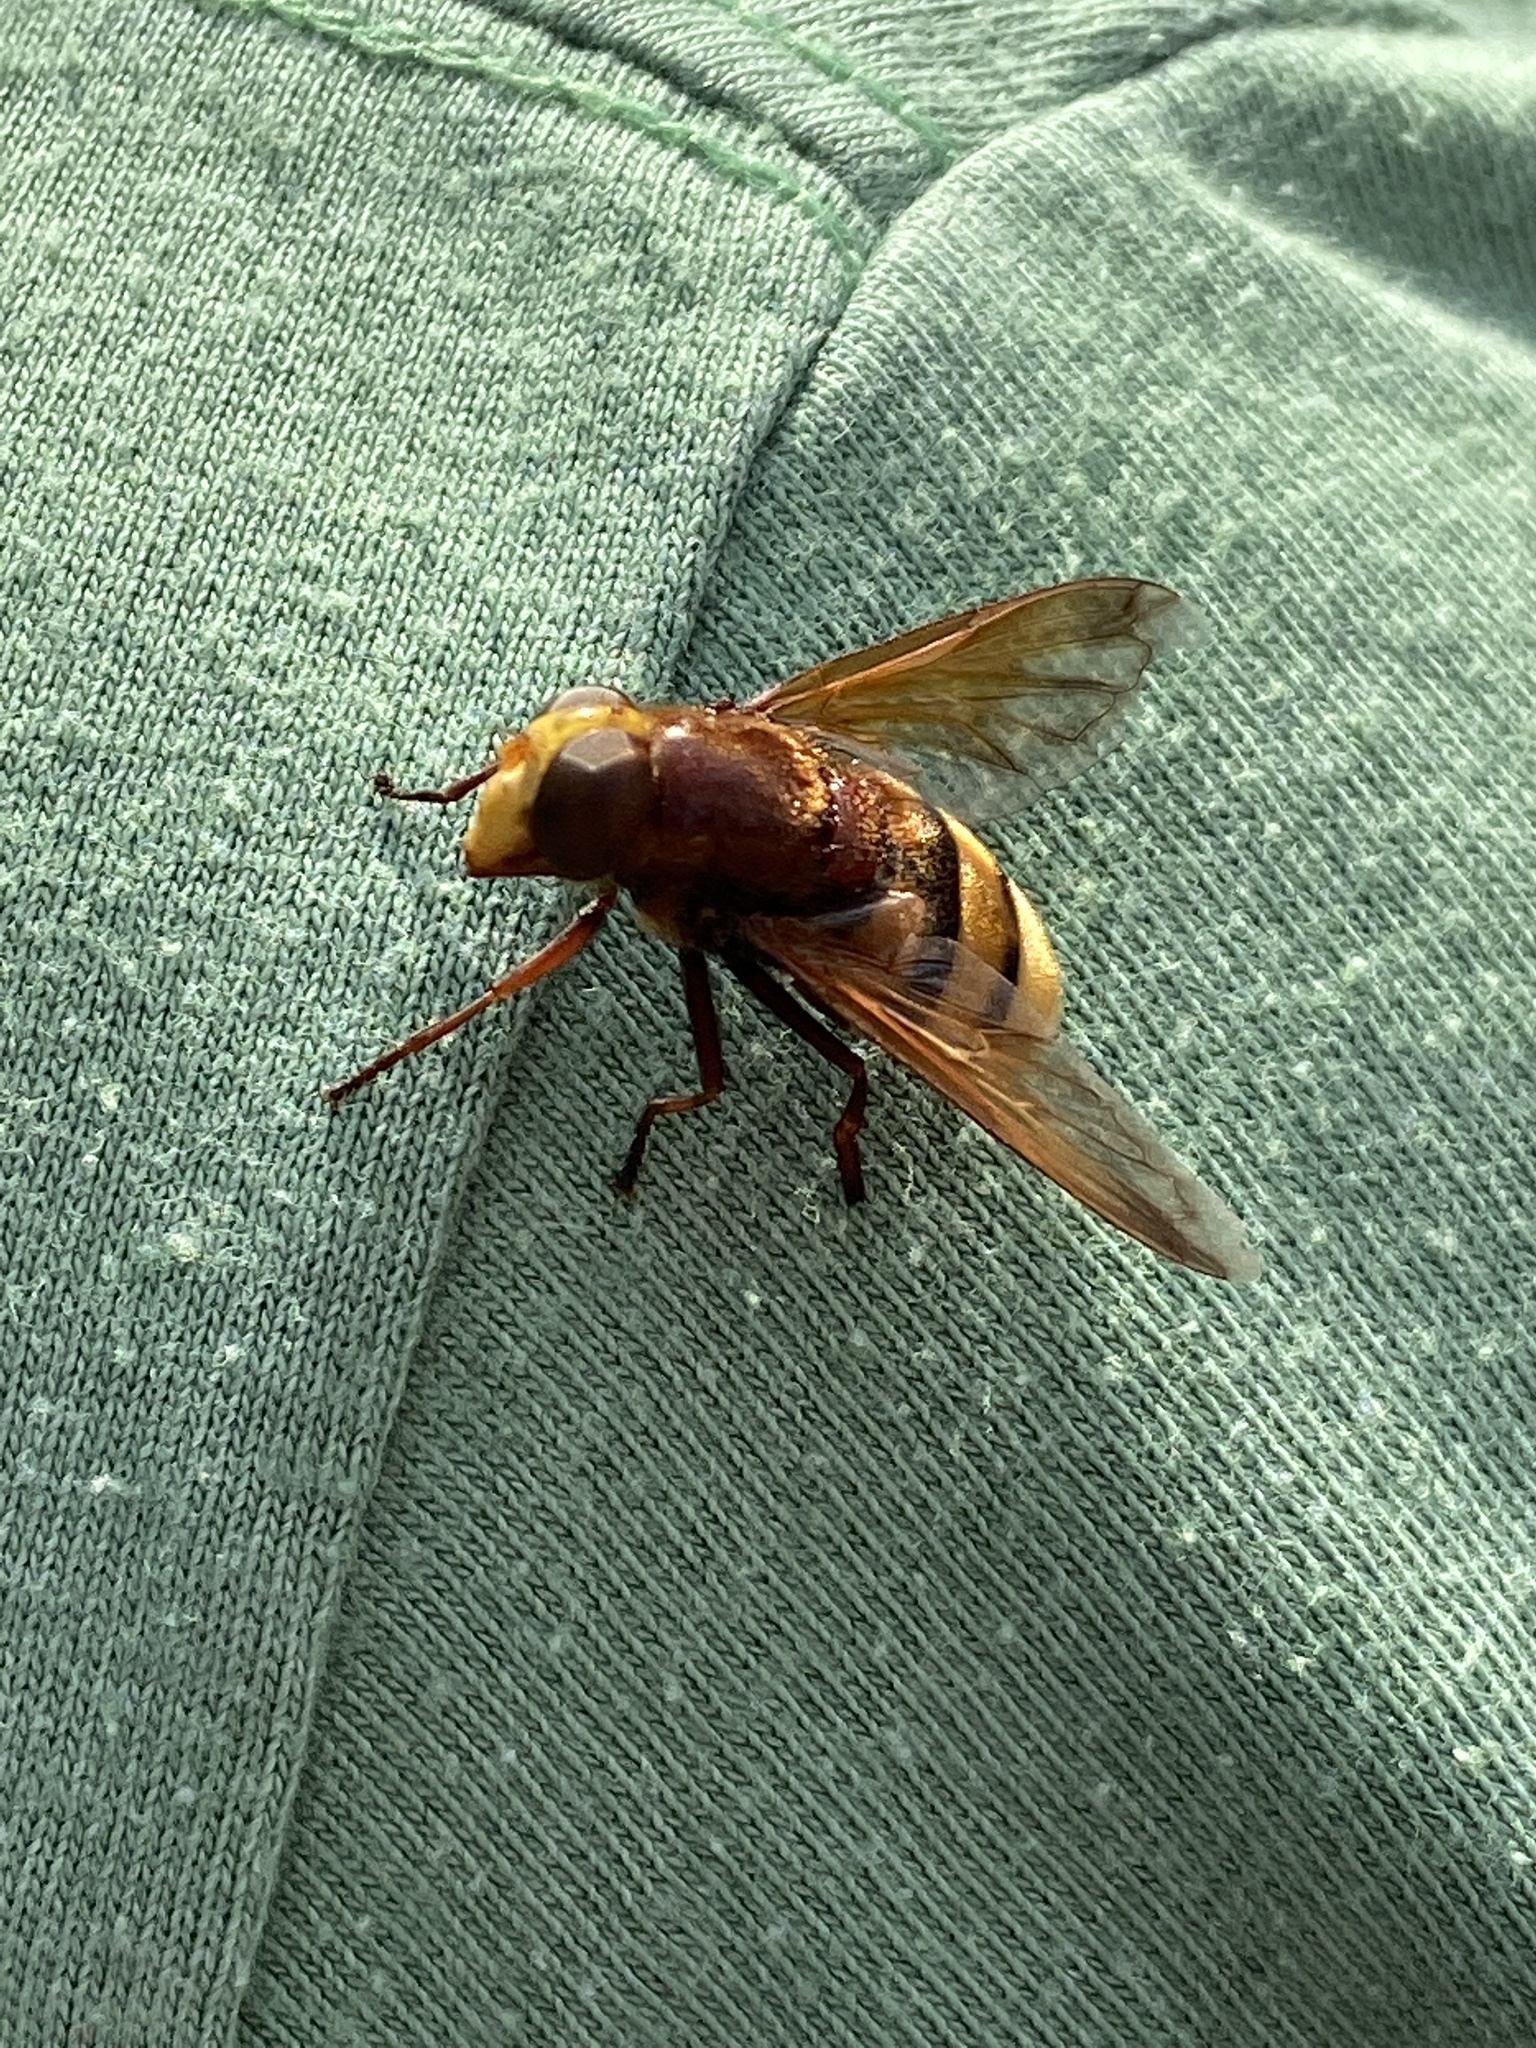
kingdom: Animalia
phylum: Arthropoda
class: Insecta
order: Diptera
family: Syrphidae
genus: Volucella
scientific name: Volucella zonaria
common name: Hornet hoverfly
